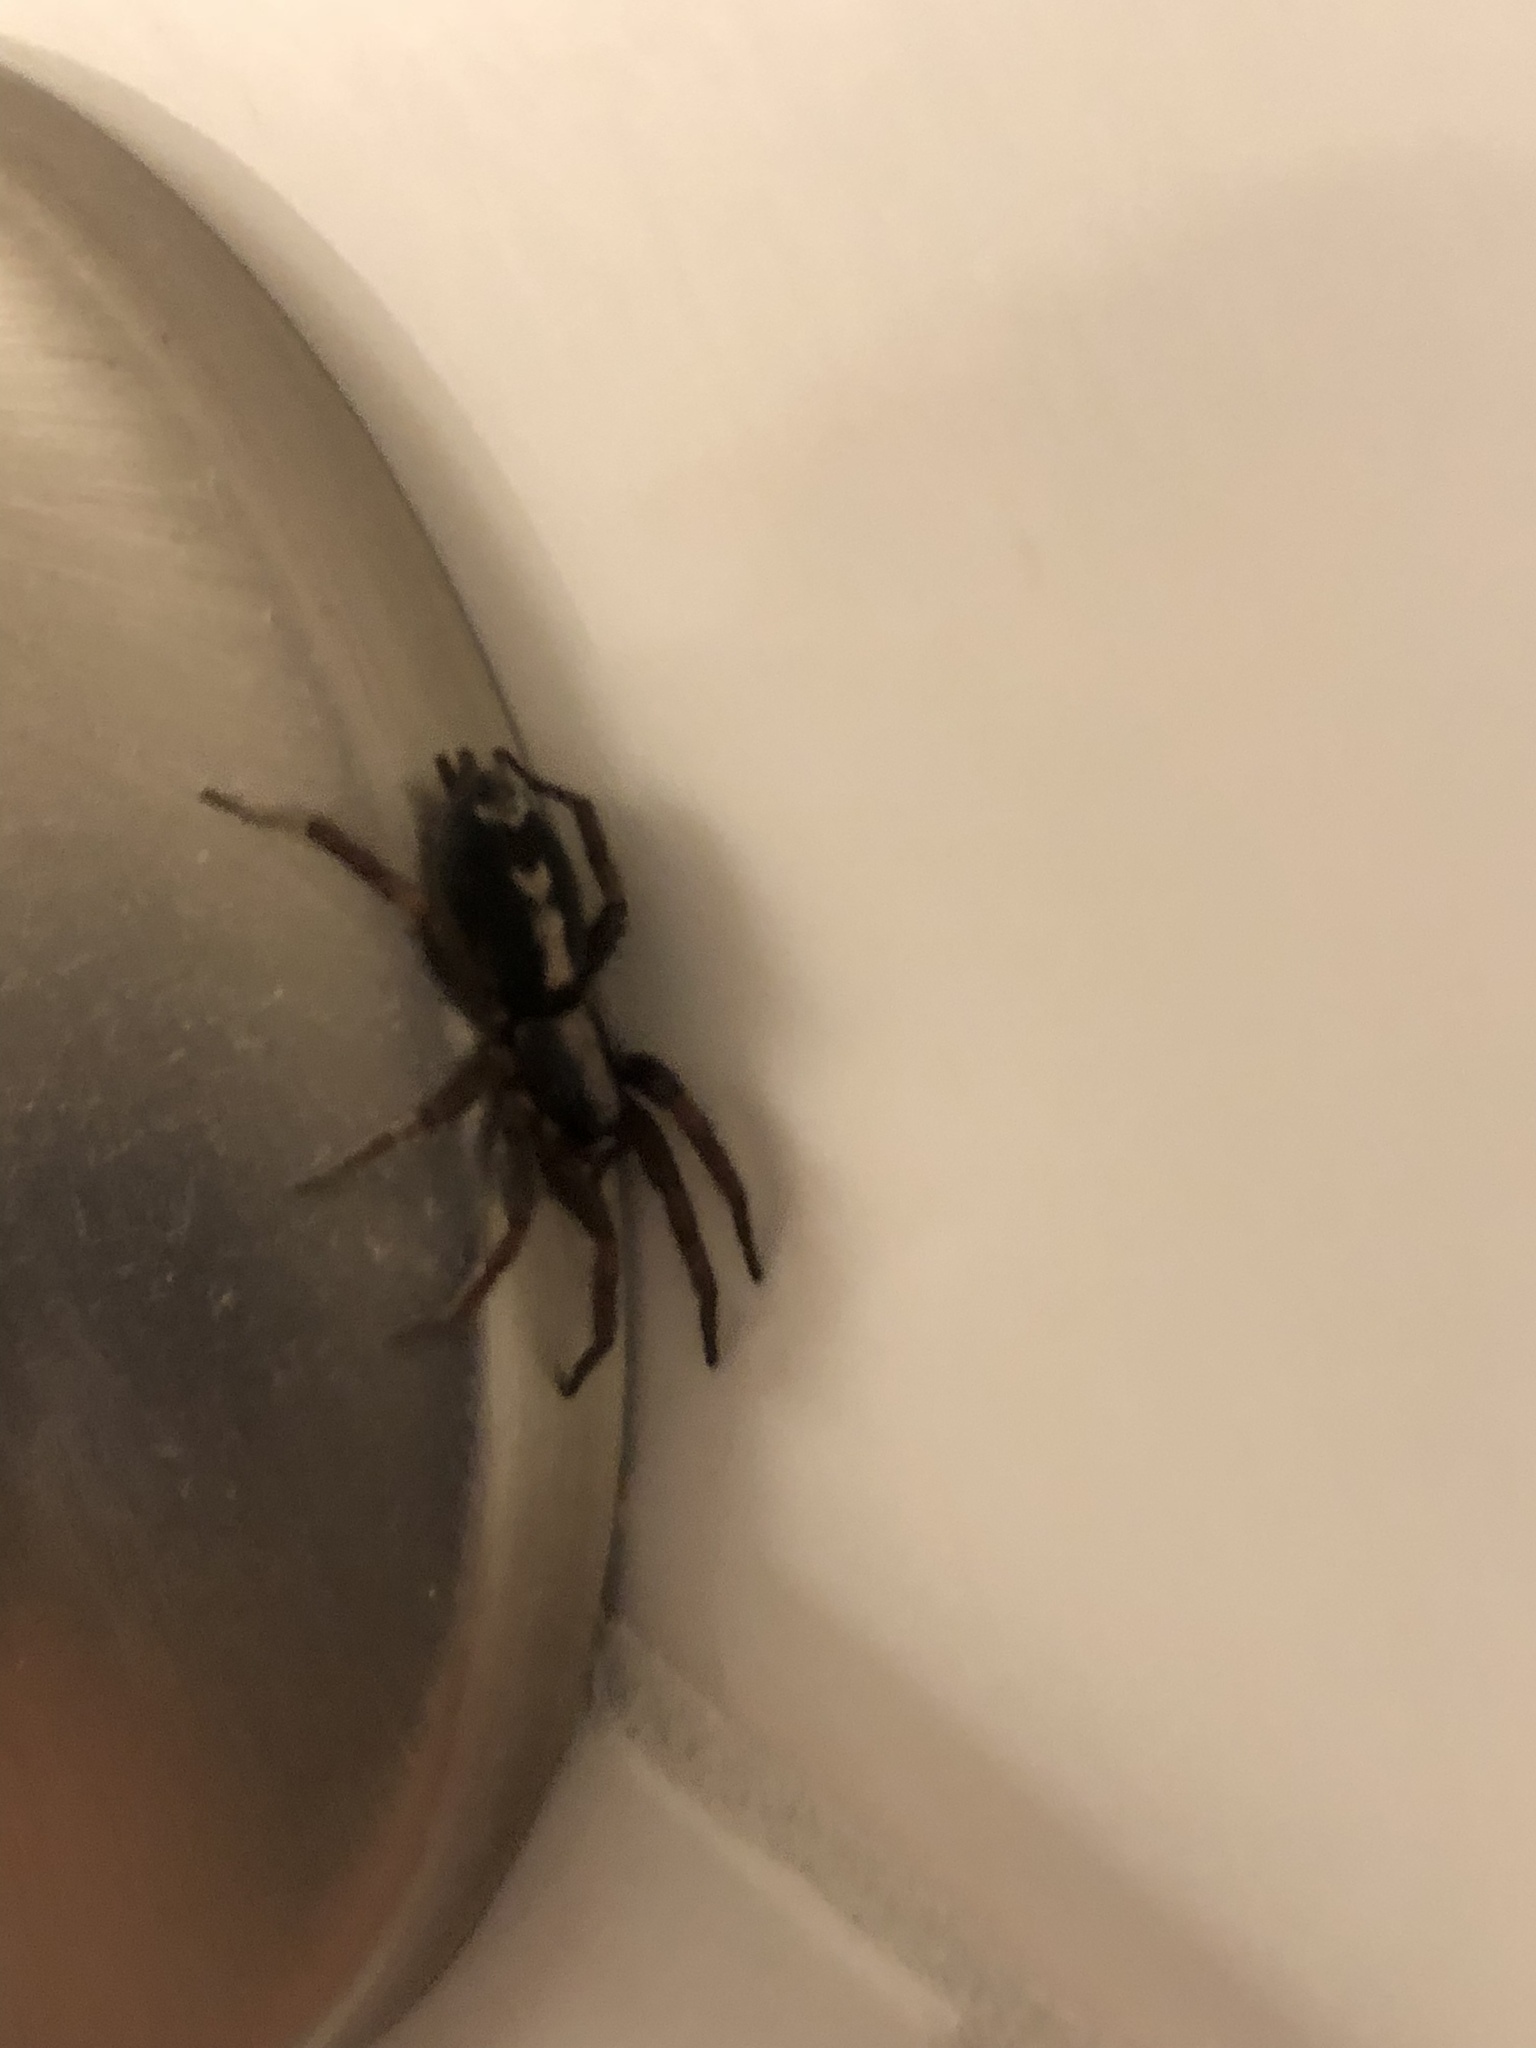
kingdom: Animalia
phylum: Arthropoda
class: Arachnida
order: Araneae
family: Gnaphosidae
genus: Herpyllus
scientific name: Herpyllus ecclesiasticus
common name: Eastern parson spider
